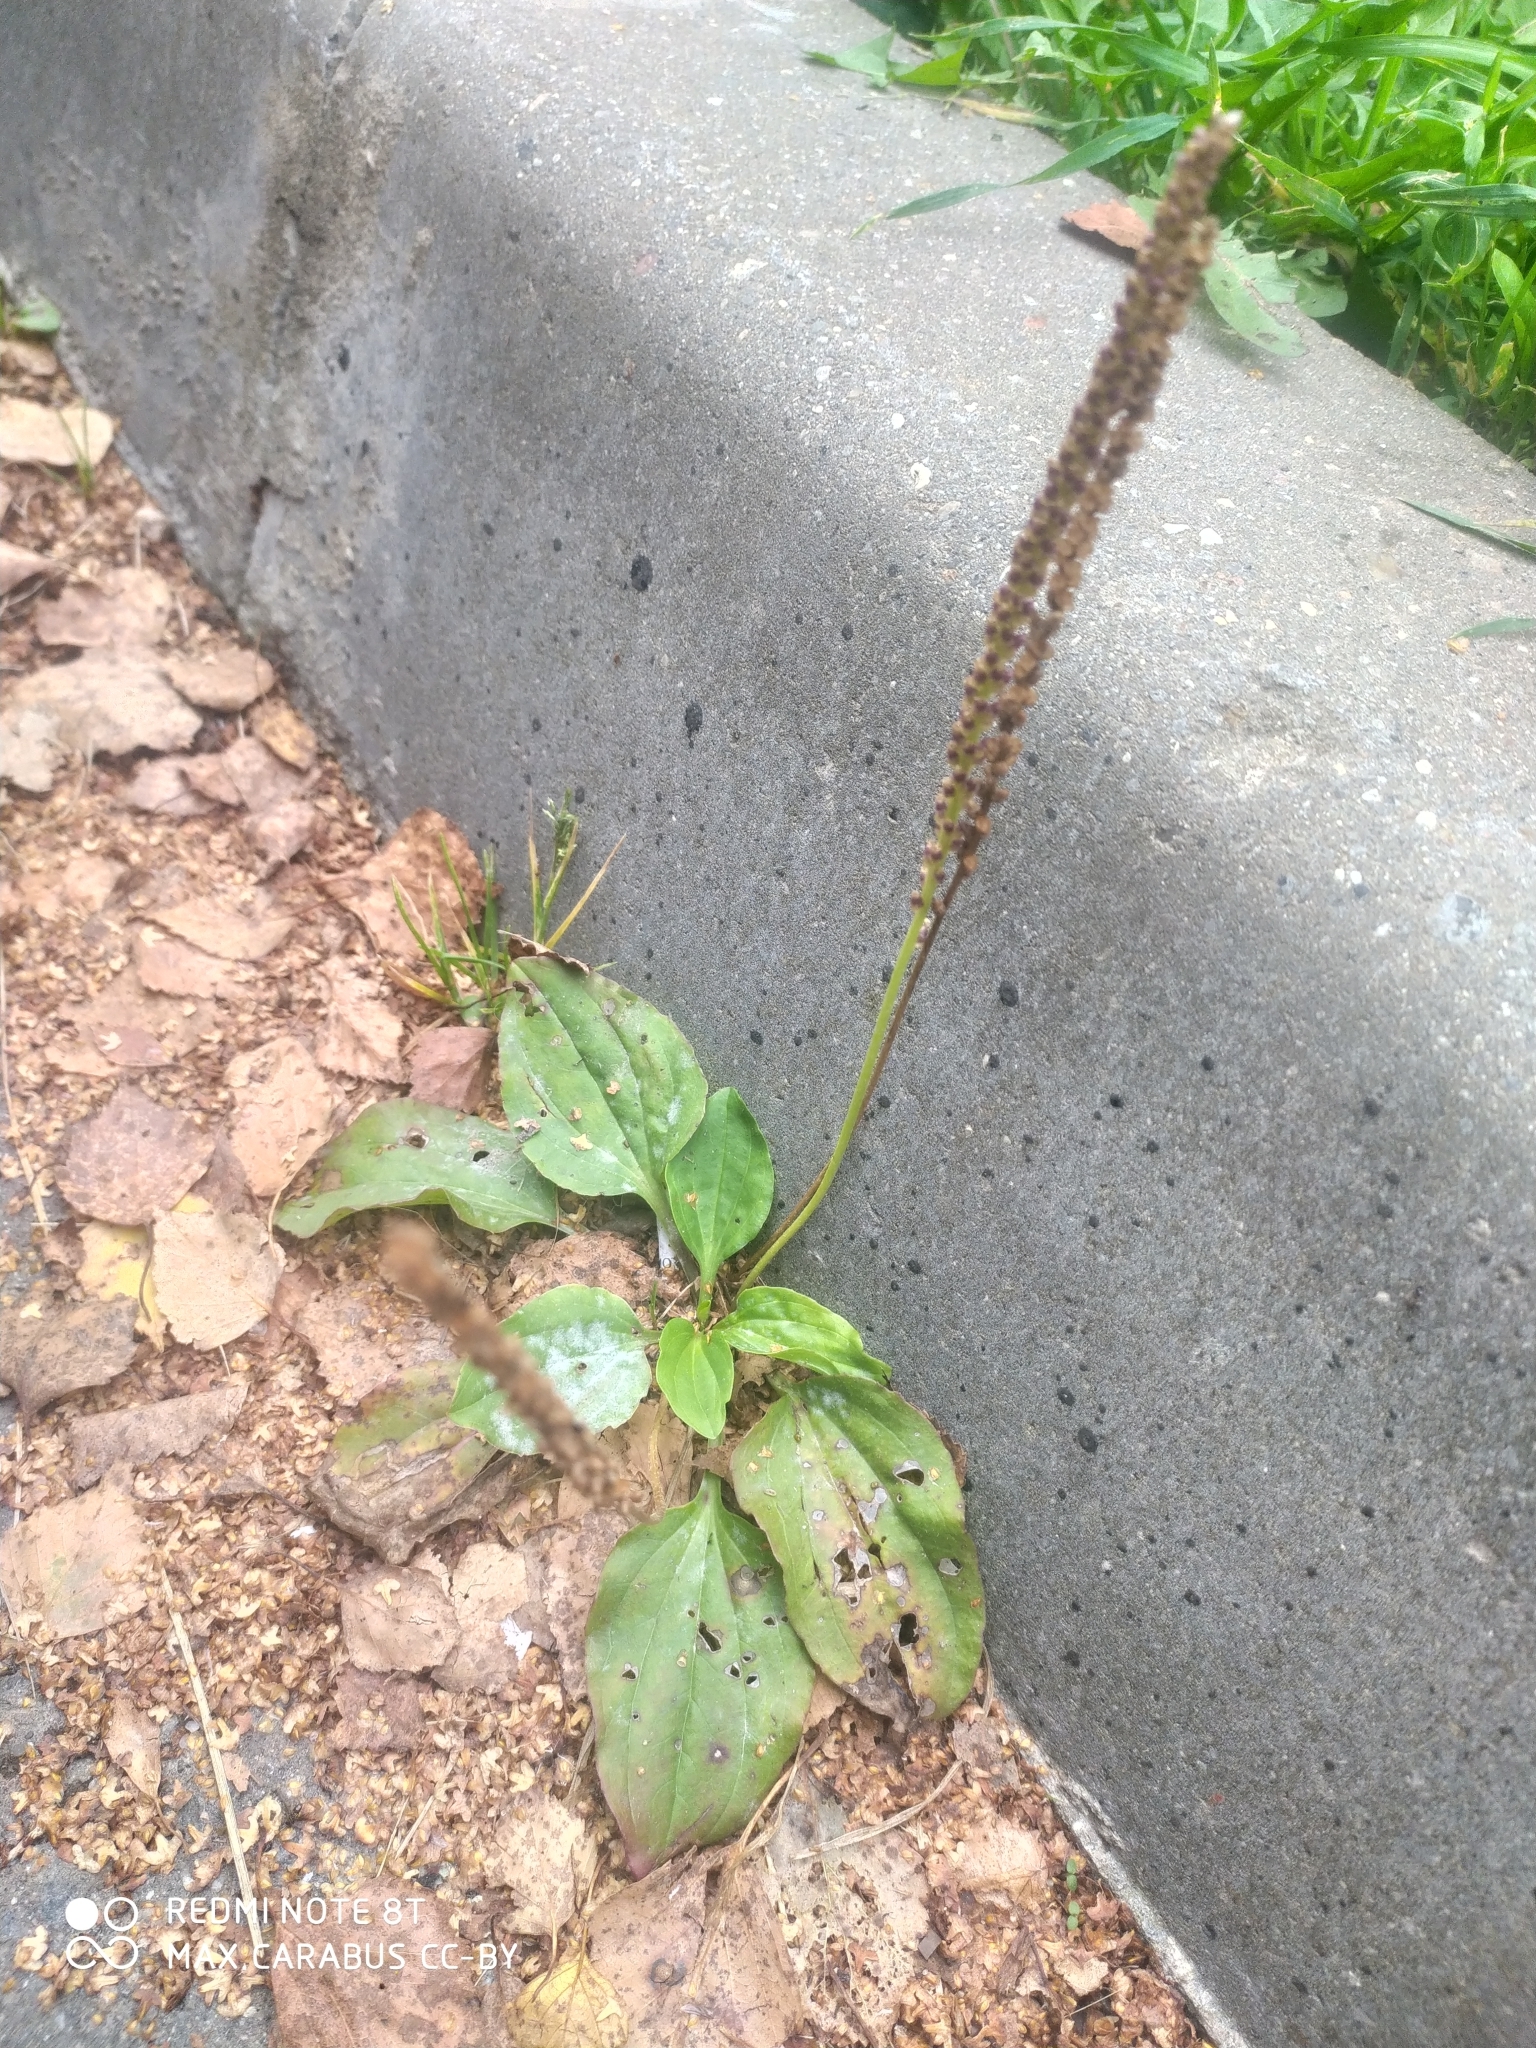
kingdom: Plantae
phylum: Tracheophyta
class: Magnoliopsida
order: Lamiales
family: Plantaginaceae
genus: Plantago
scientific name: Plantago major
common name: Common plantain
